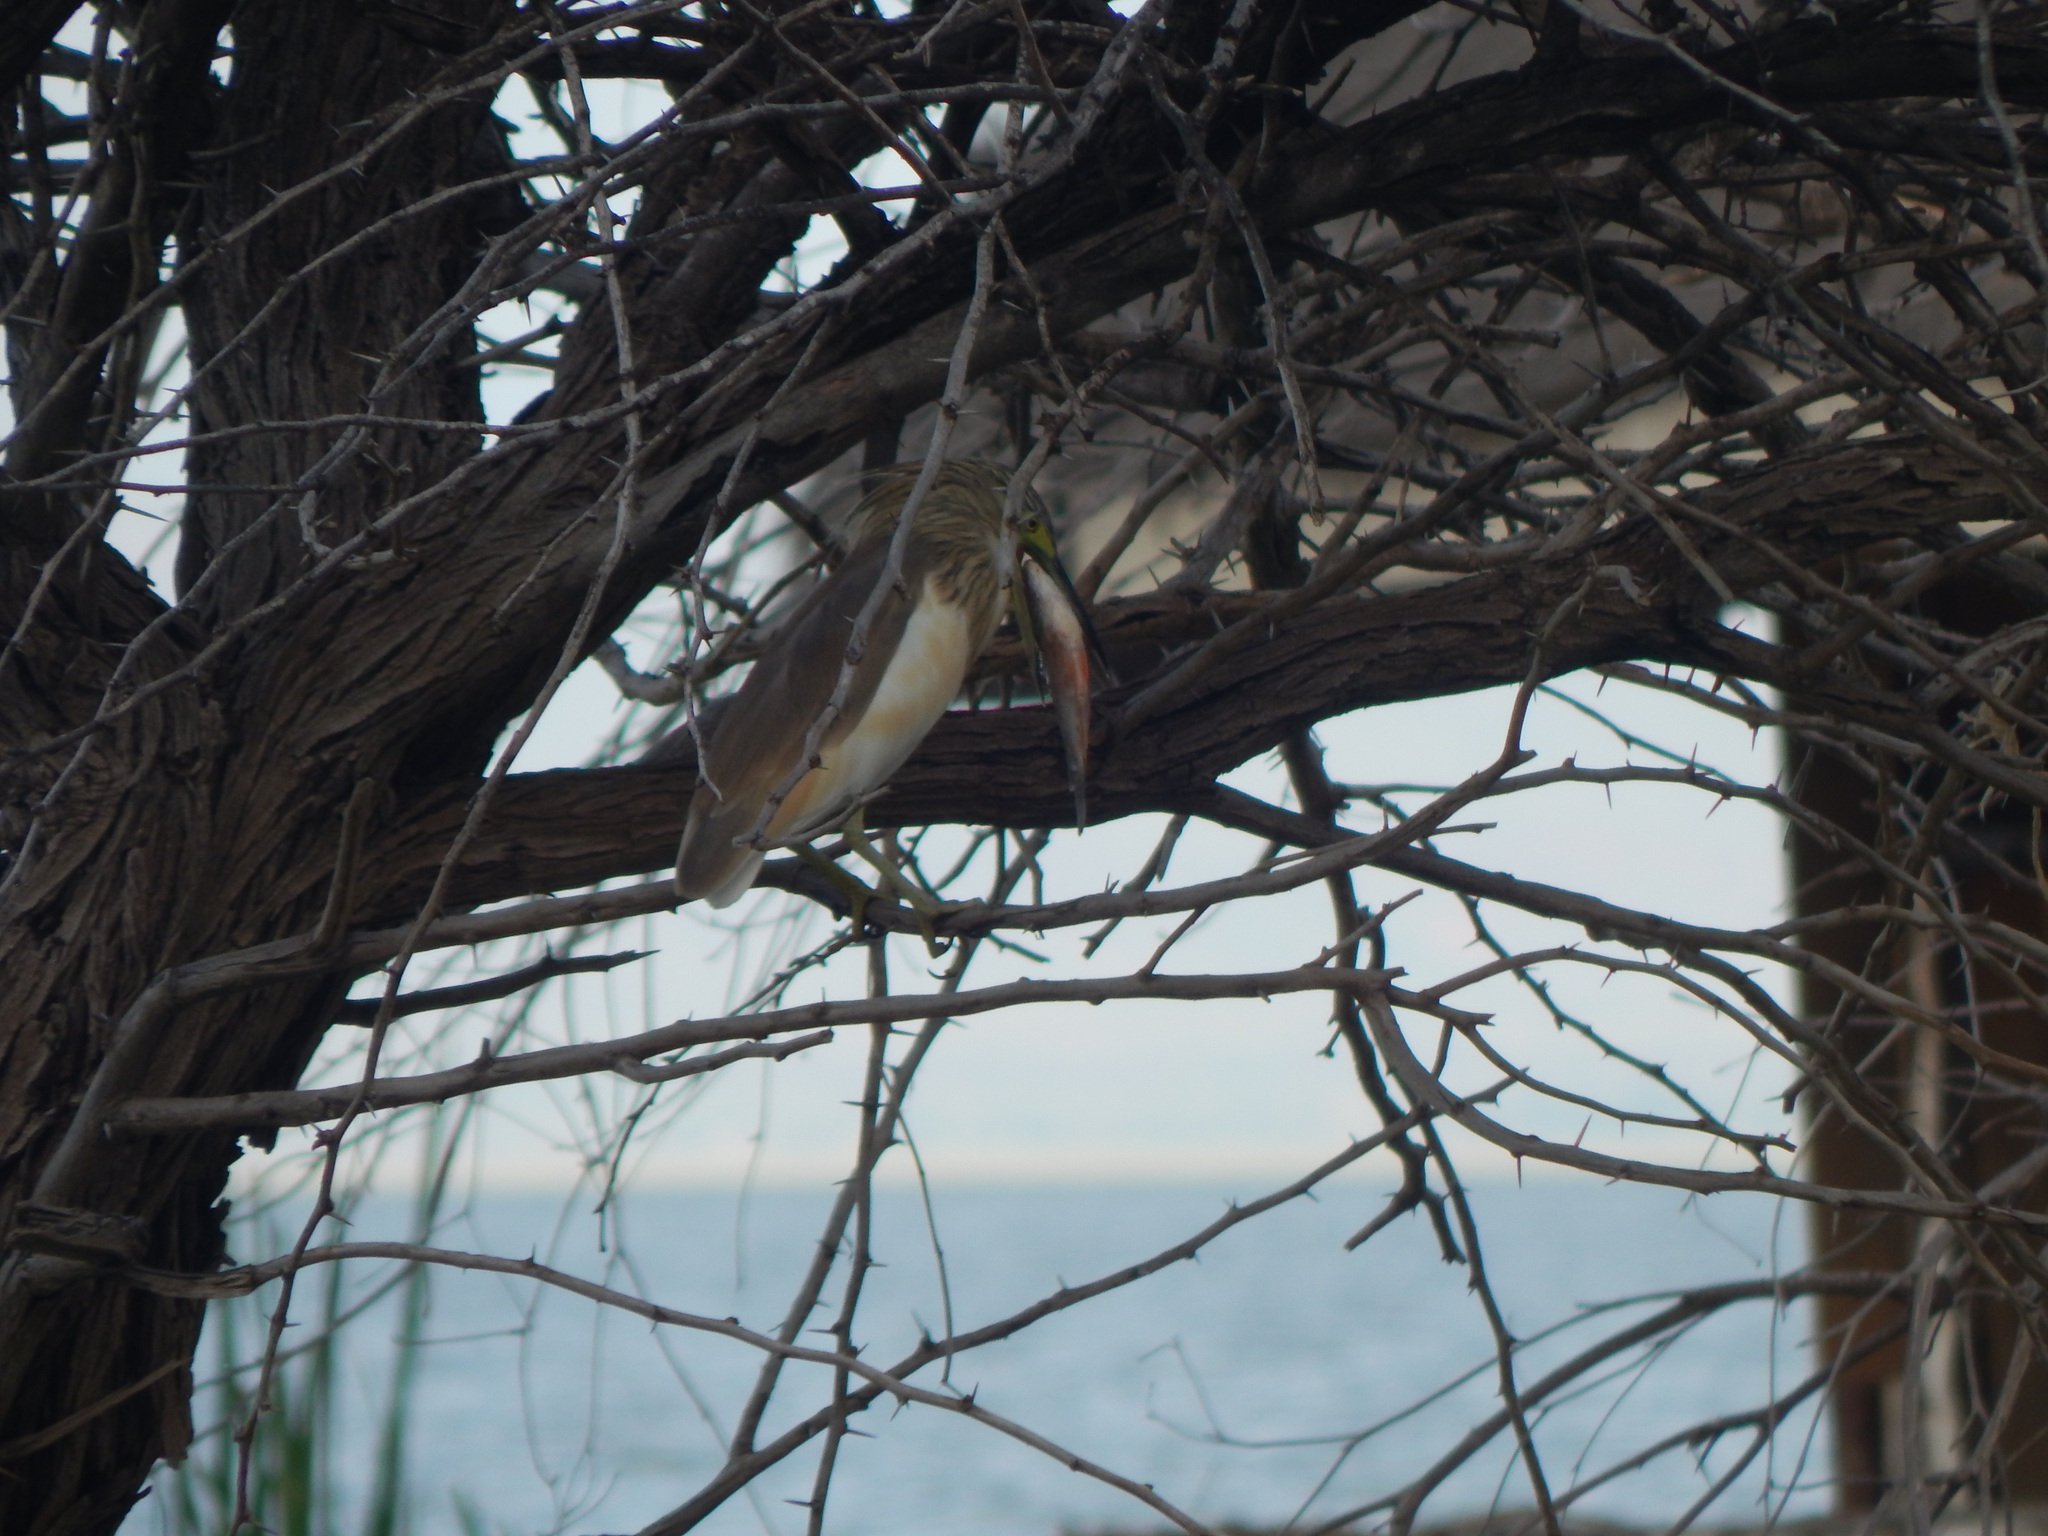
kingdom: Animalia
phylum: Chordata
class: Aves
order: Pelecaniformes
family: Ardeidae
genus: Ardeola
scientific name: Ardeola ralloides
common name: Squacco heron
